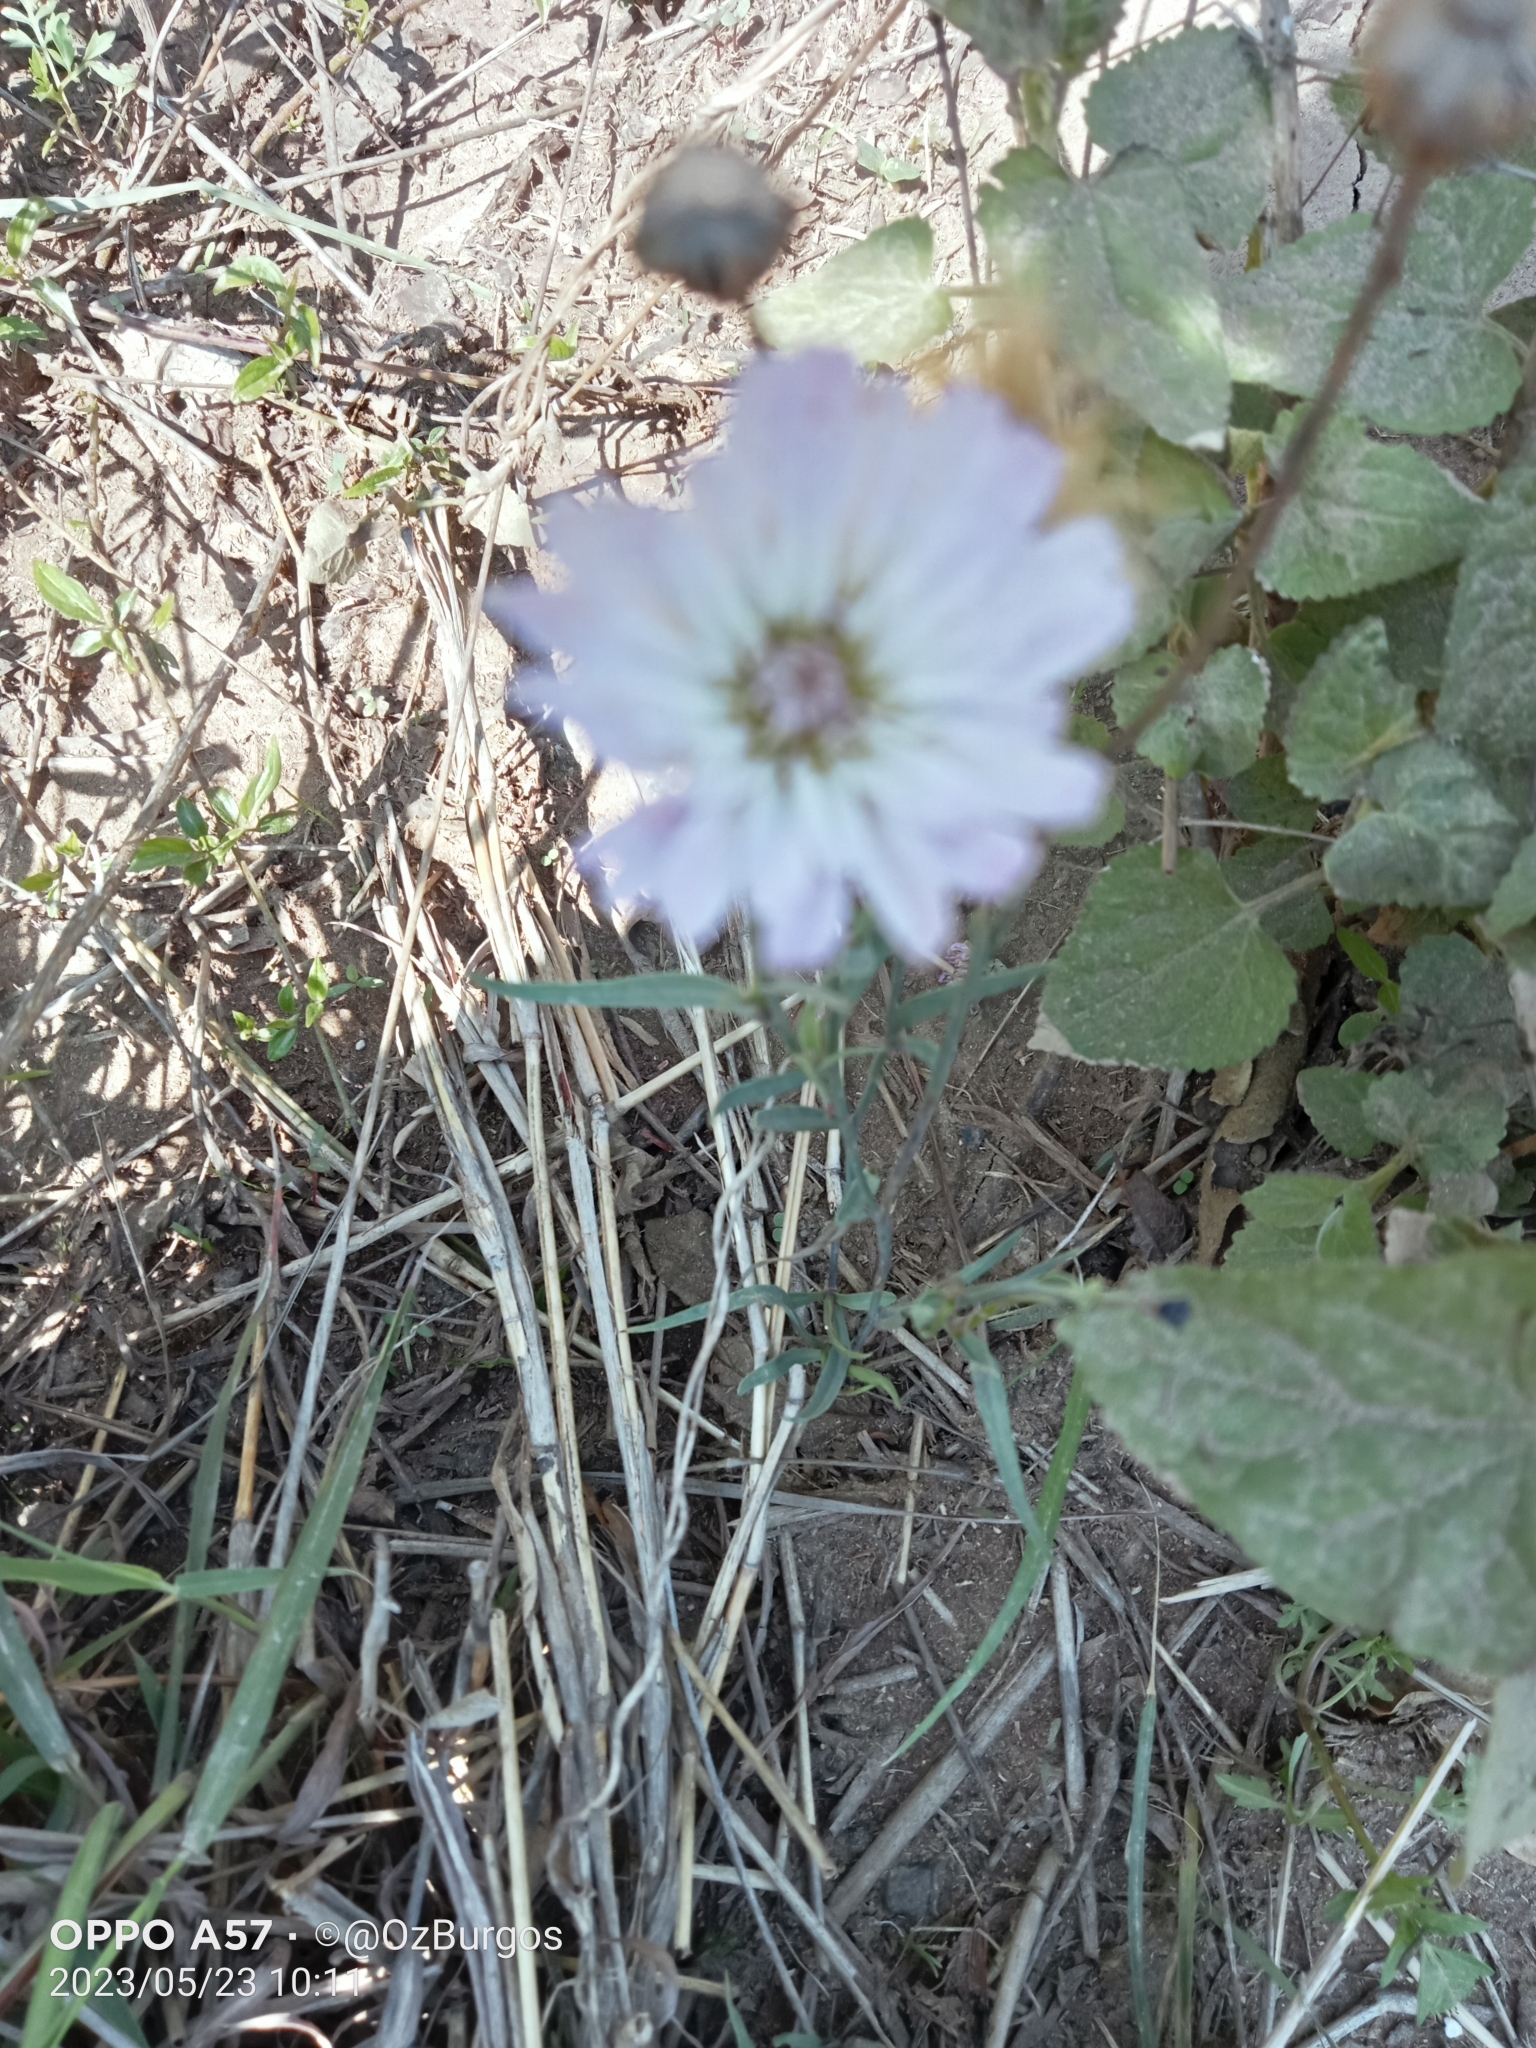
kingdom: Plantae
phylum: Tracheophyta
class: Magnoliopsida
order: Asterales
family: Asteraceae
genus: Pinaropappus
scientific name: Pinaropappus roseus
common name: Rock-lettuce
